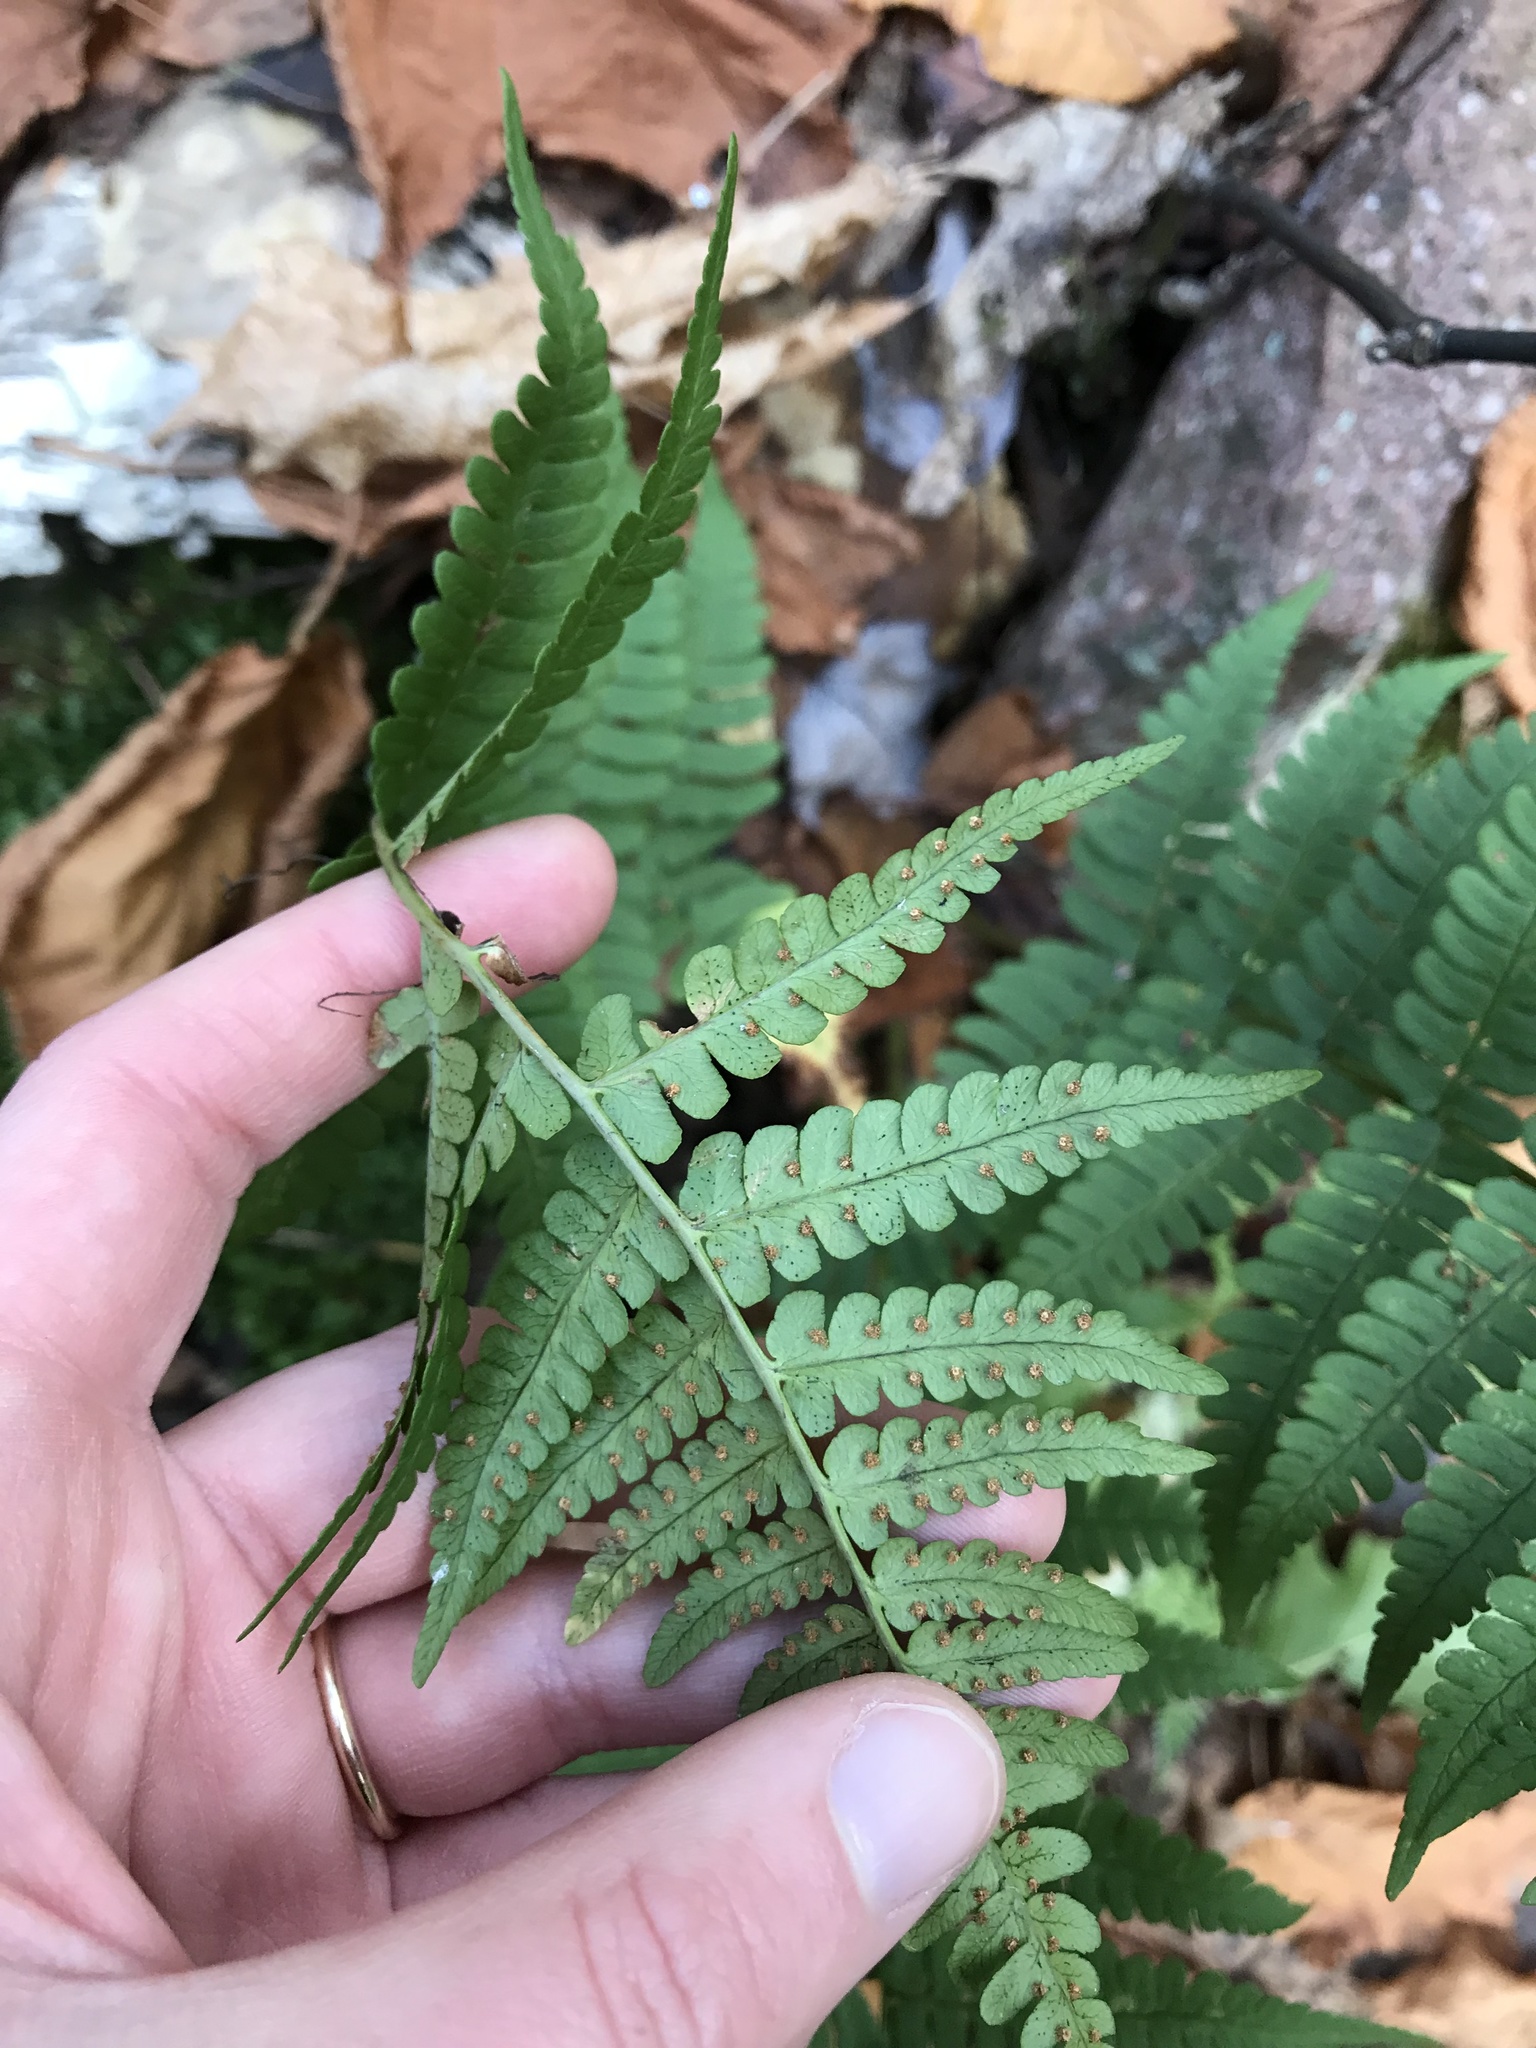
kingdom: Plantae
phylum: Tracheophyta
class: Polypodiopsida
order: Polypodiales
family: Dryopteridaceae
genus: Dryopteris
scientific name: Dryopteris marginalis
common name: Marginal wood fern
